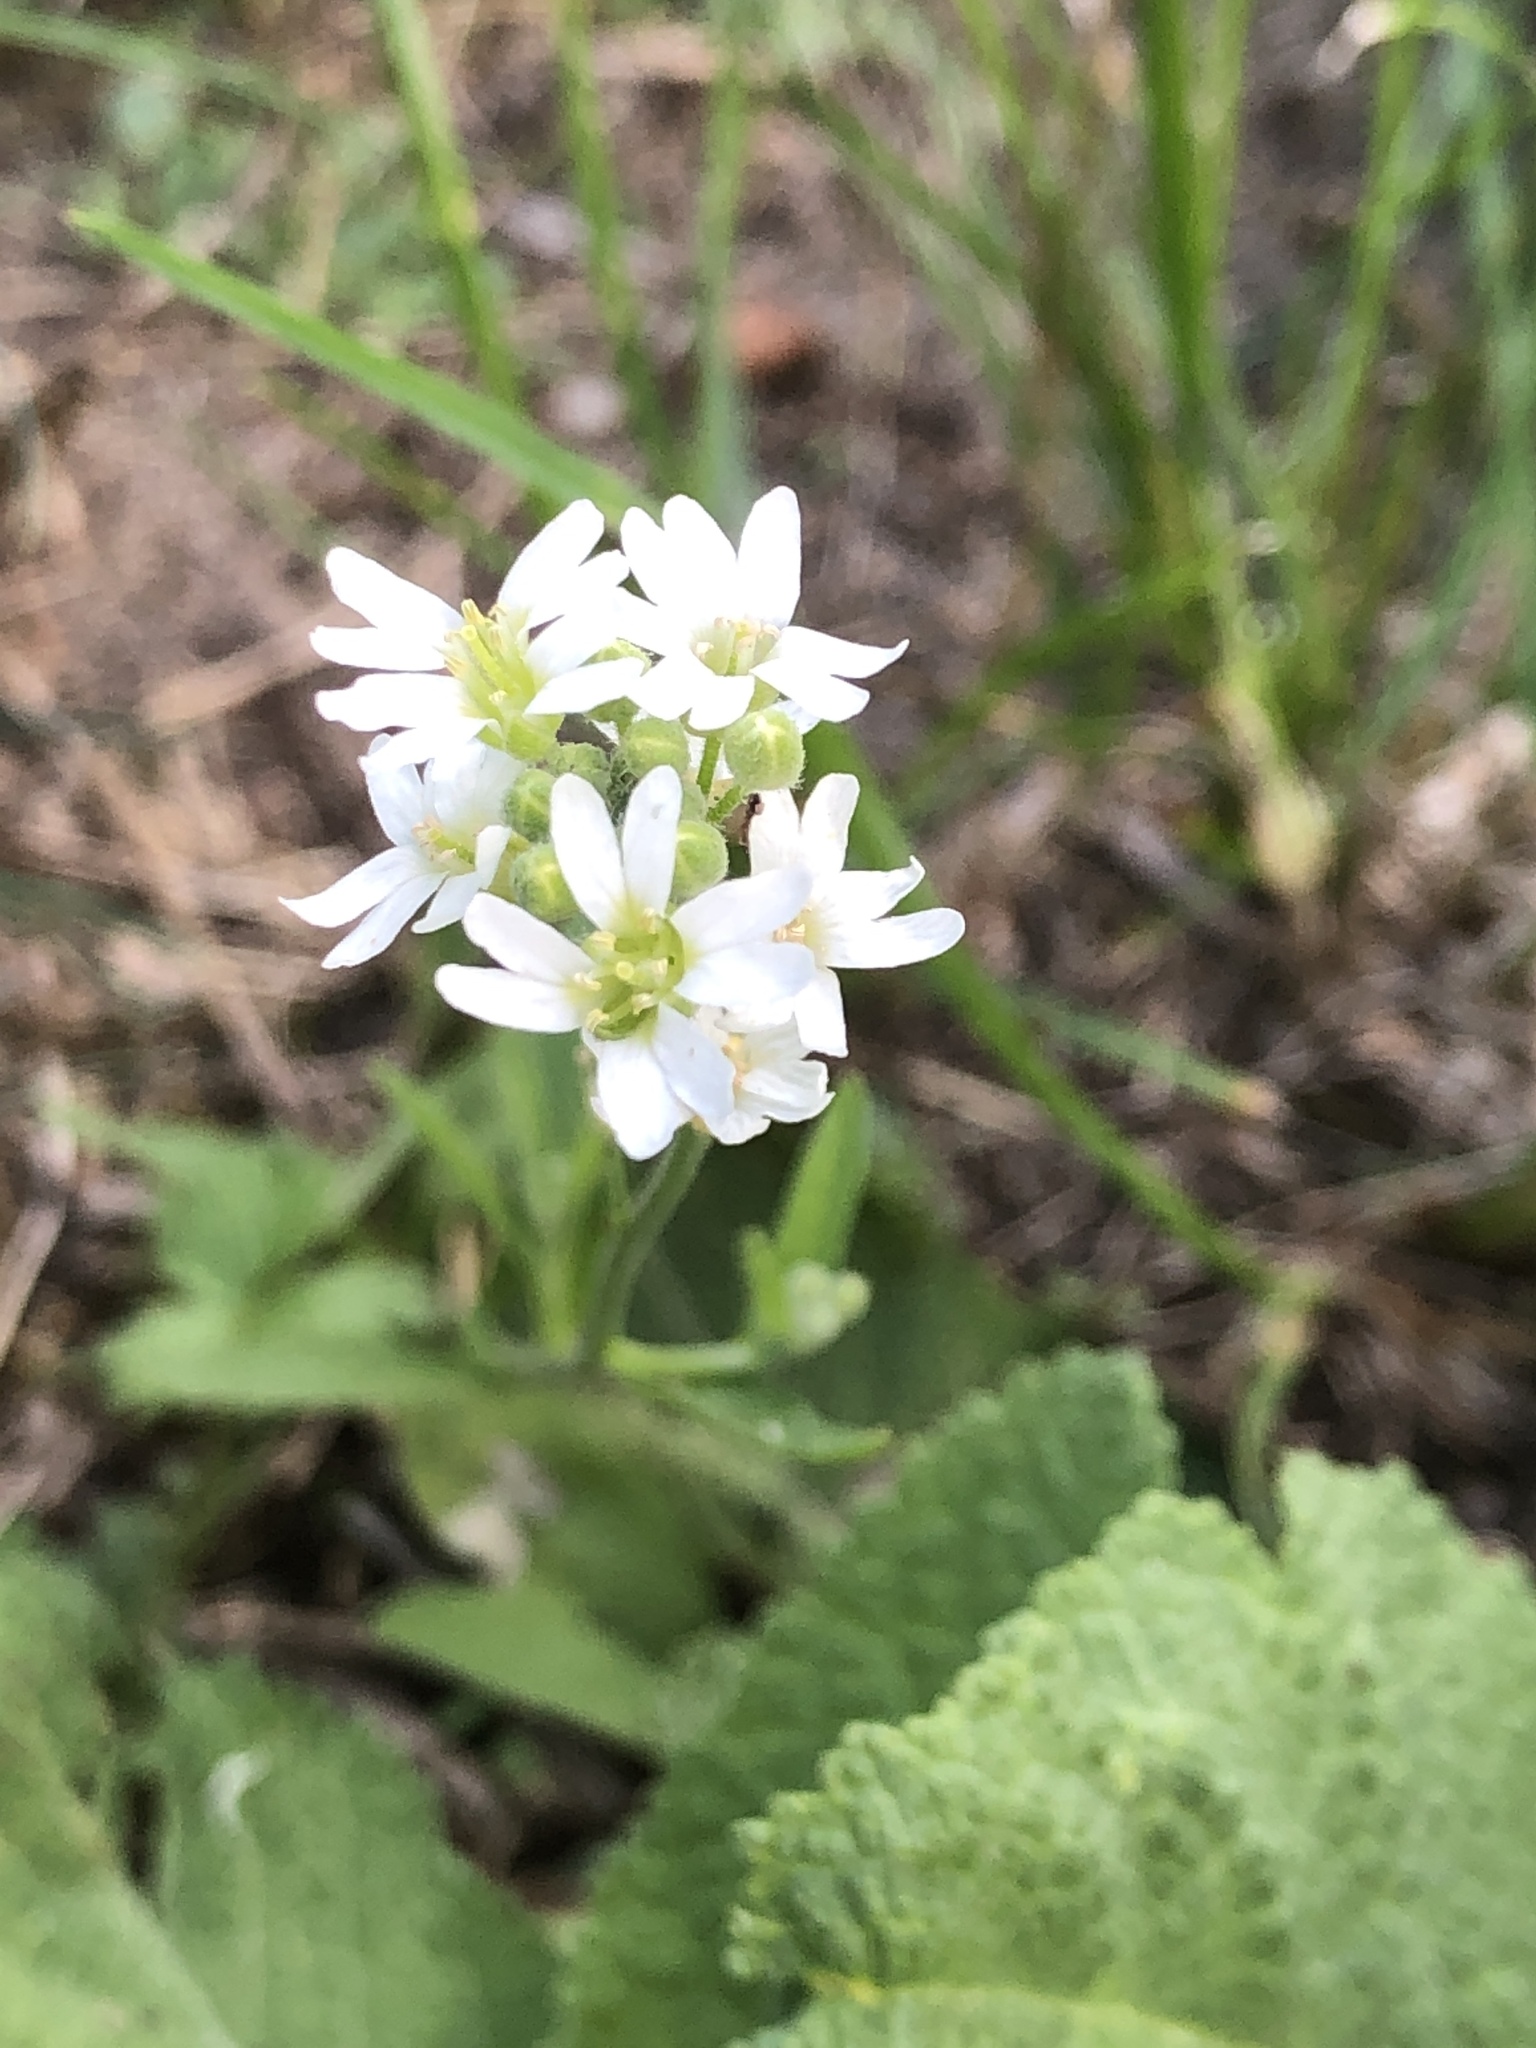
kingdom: Plantae
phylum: Tracheophyta
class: Magnoliopsida
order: Brassicales
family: Brassicaceae
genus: Berteroa
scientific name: Berteroa incana
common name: Hoary alison
